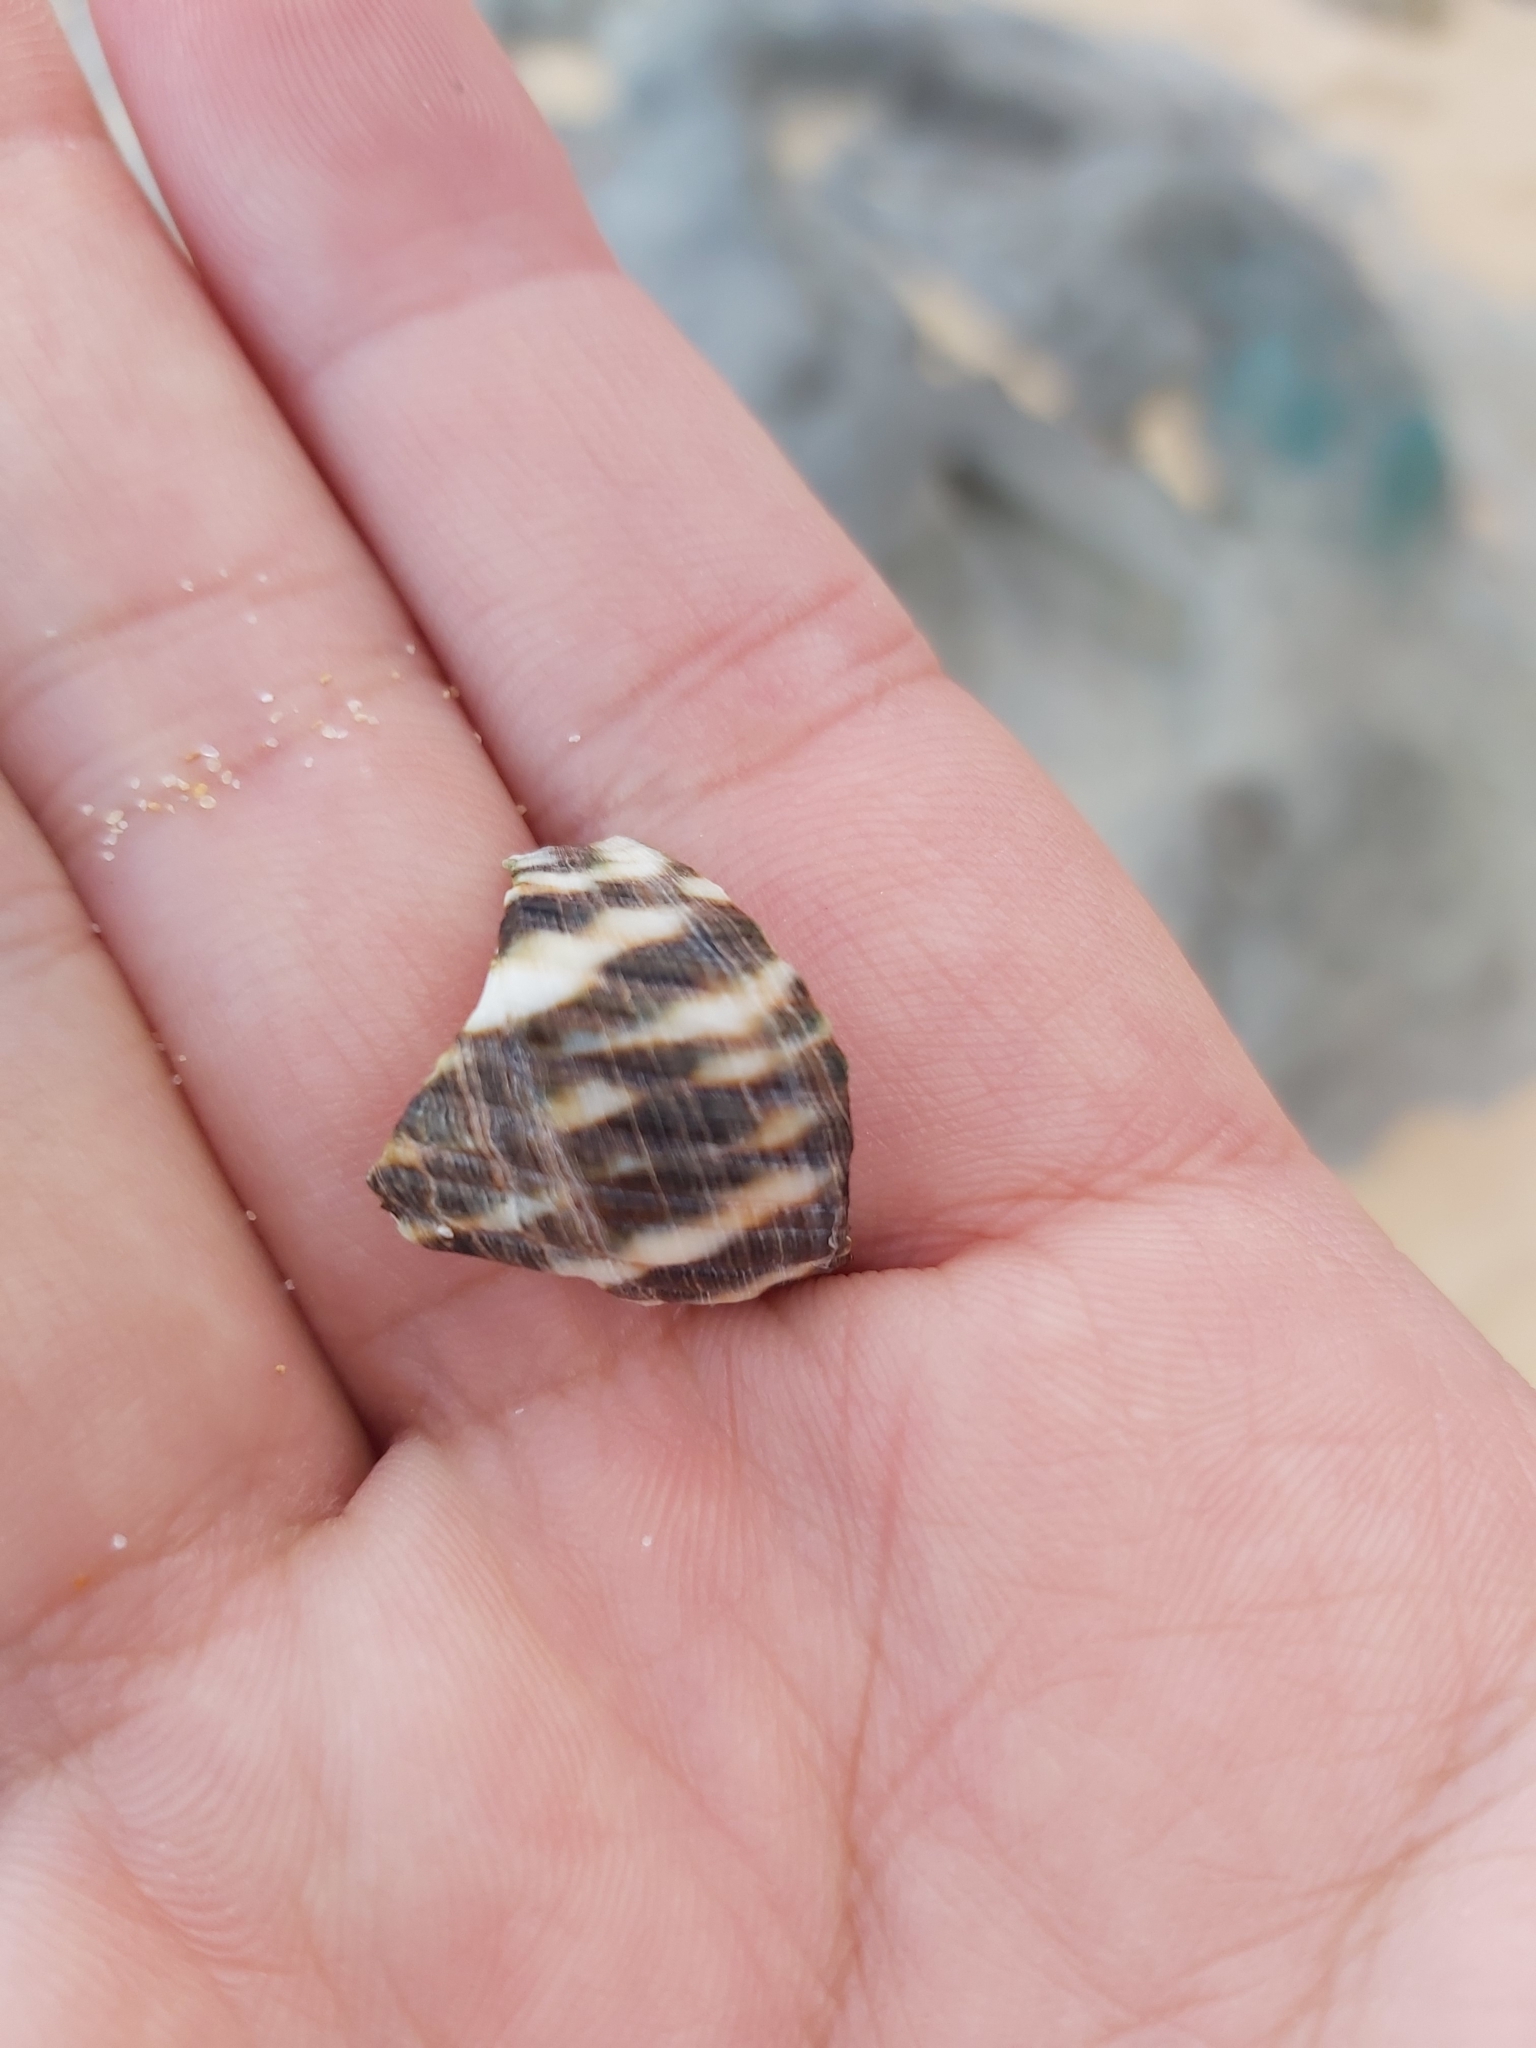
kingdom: Animalia
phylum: Mollusca
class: Gastropoda
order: Trochida
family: Turbinidae
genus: Lunella
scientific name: Lunella undulata
